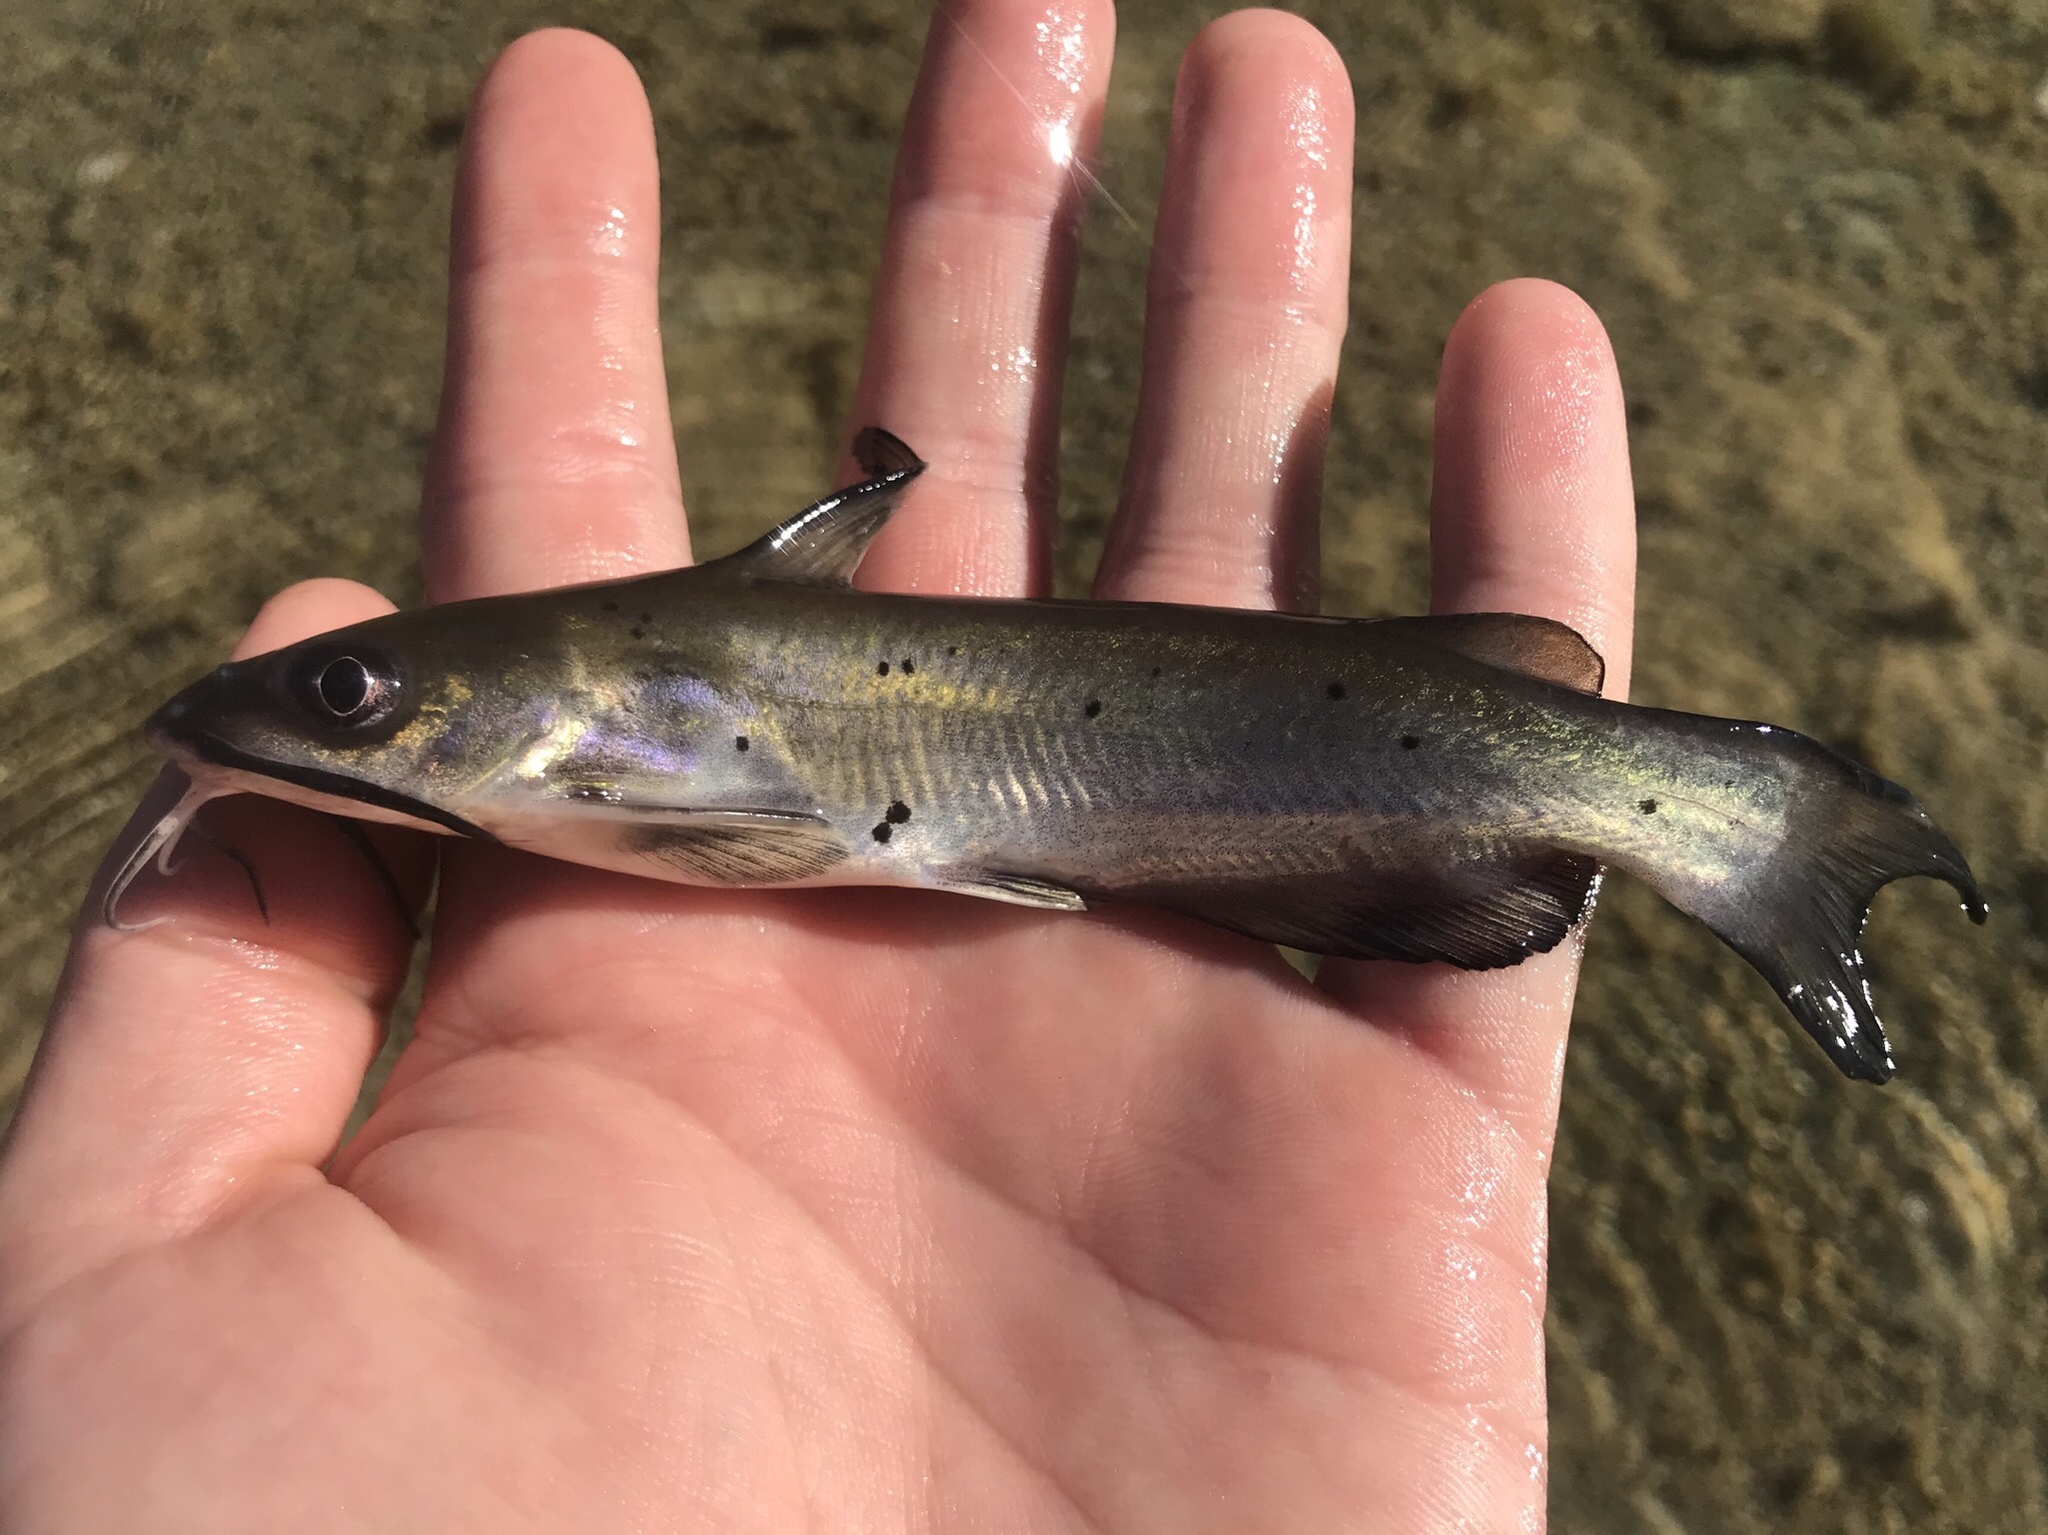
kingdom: Animalia
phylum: Chordata
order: Siluriformes
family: Ictaluridae
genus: Ictalurus
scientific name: Ictalurus punctatus
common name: Channel catfish
